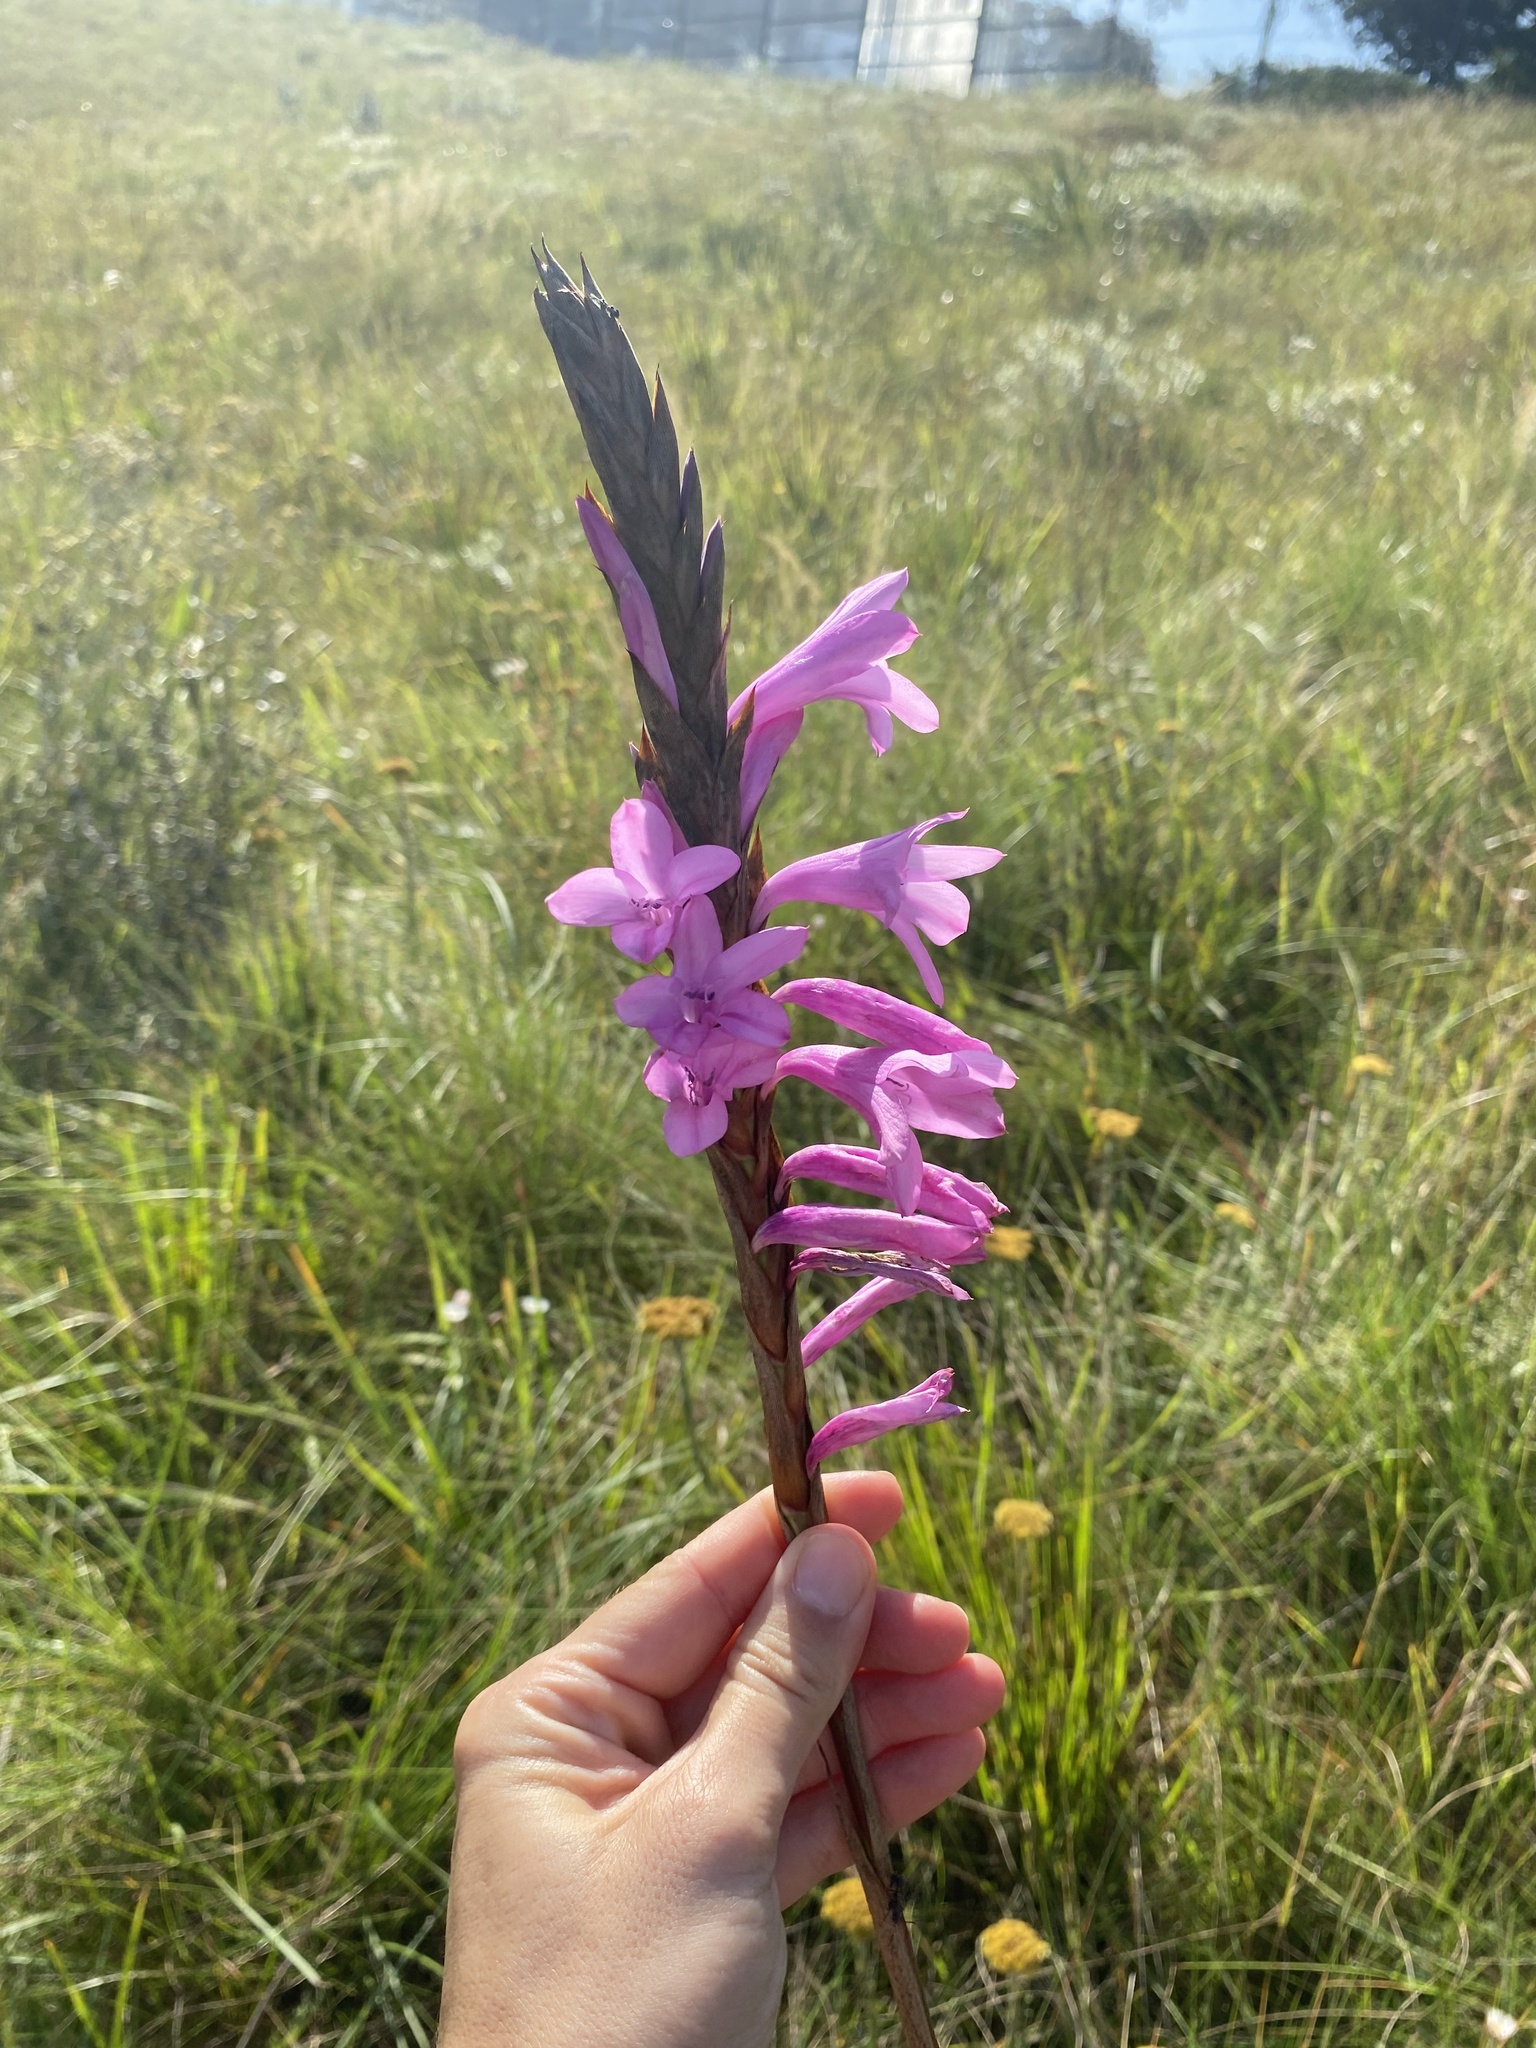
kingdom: Plantae
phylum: Tracheophyta
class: Liliopsida
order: Asparagales
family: Iridaceae
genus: Watsonia
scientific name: Watsonia densiflora
